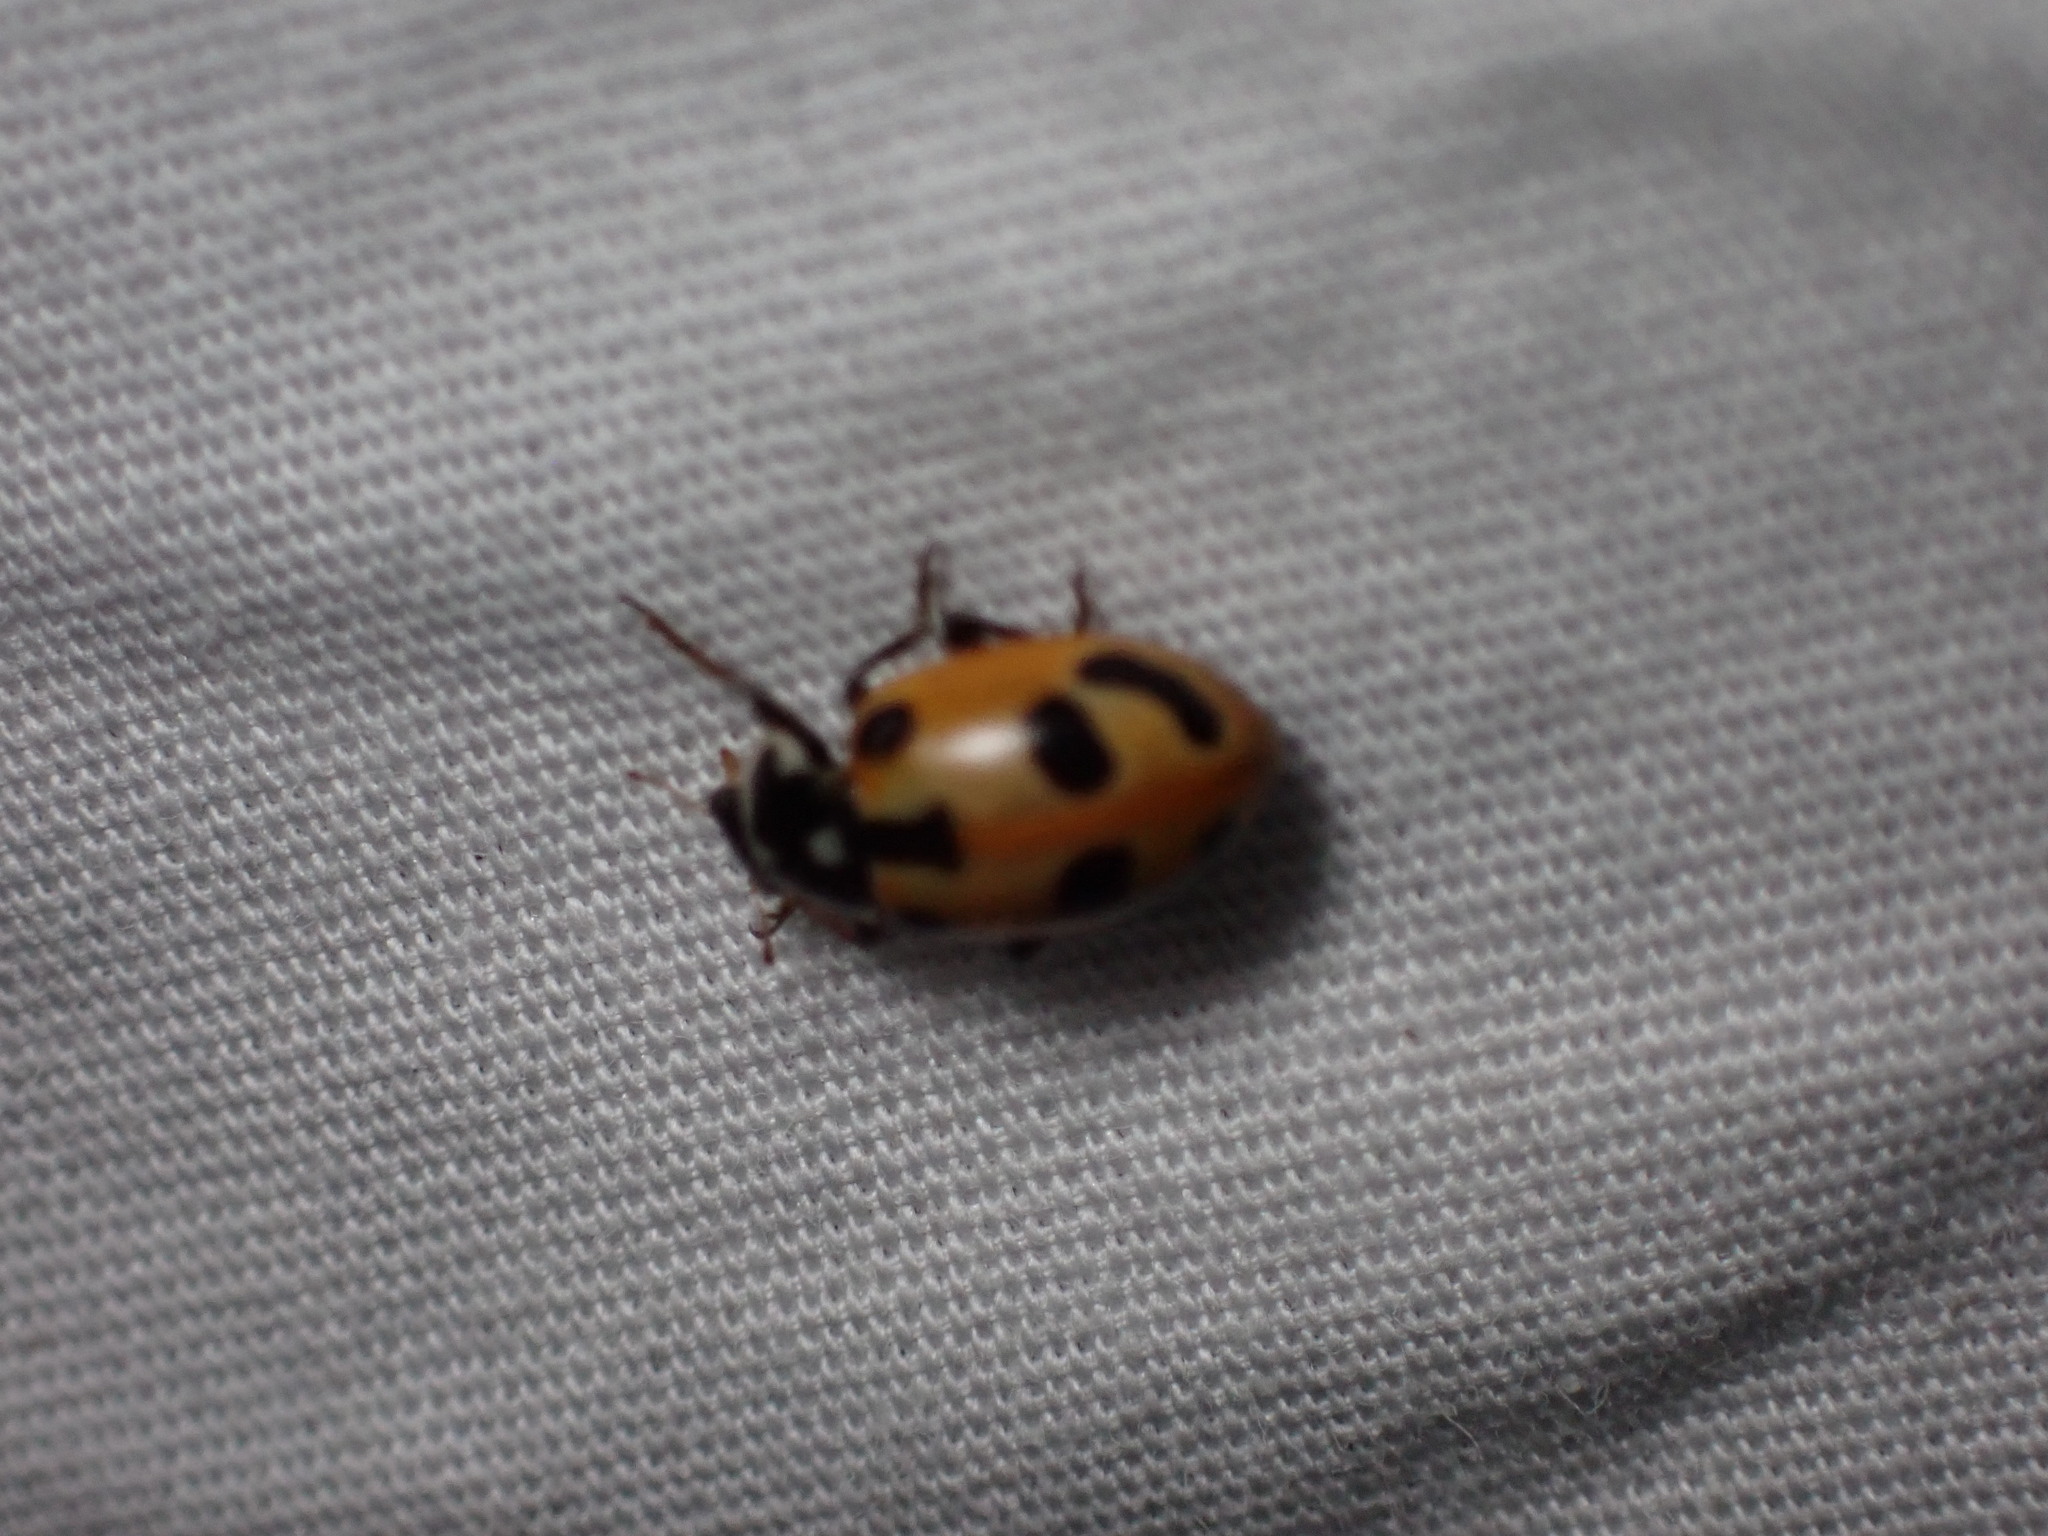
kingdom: Animalia
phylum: Arthropoda
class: Insecta
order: Coleoptera
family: Coccinellidae
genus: Hippodamia
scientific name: Hippodamia parenthesis
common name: Parenthesis lady beetle
